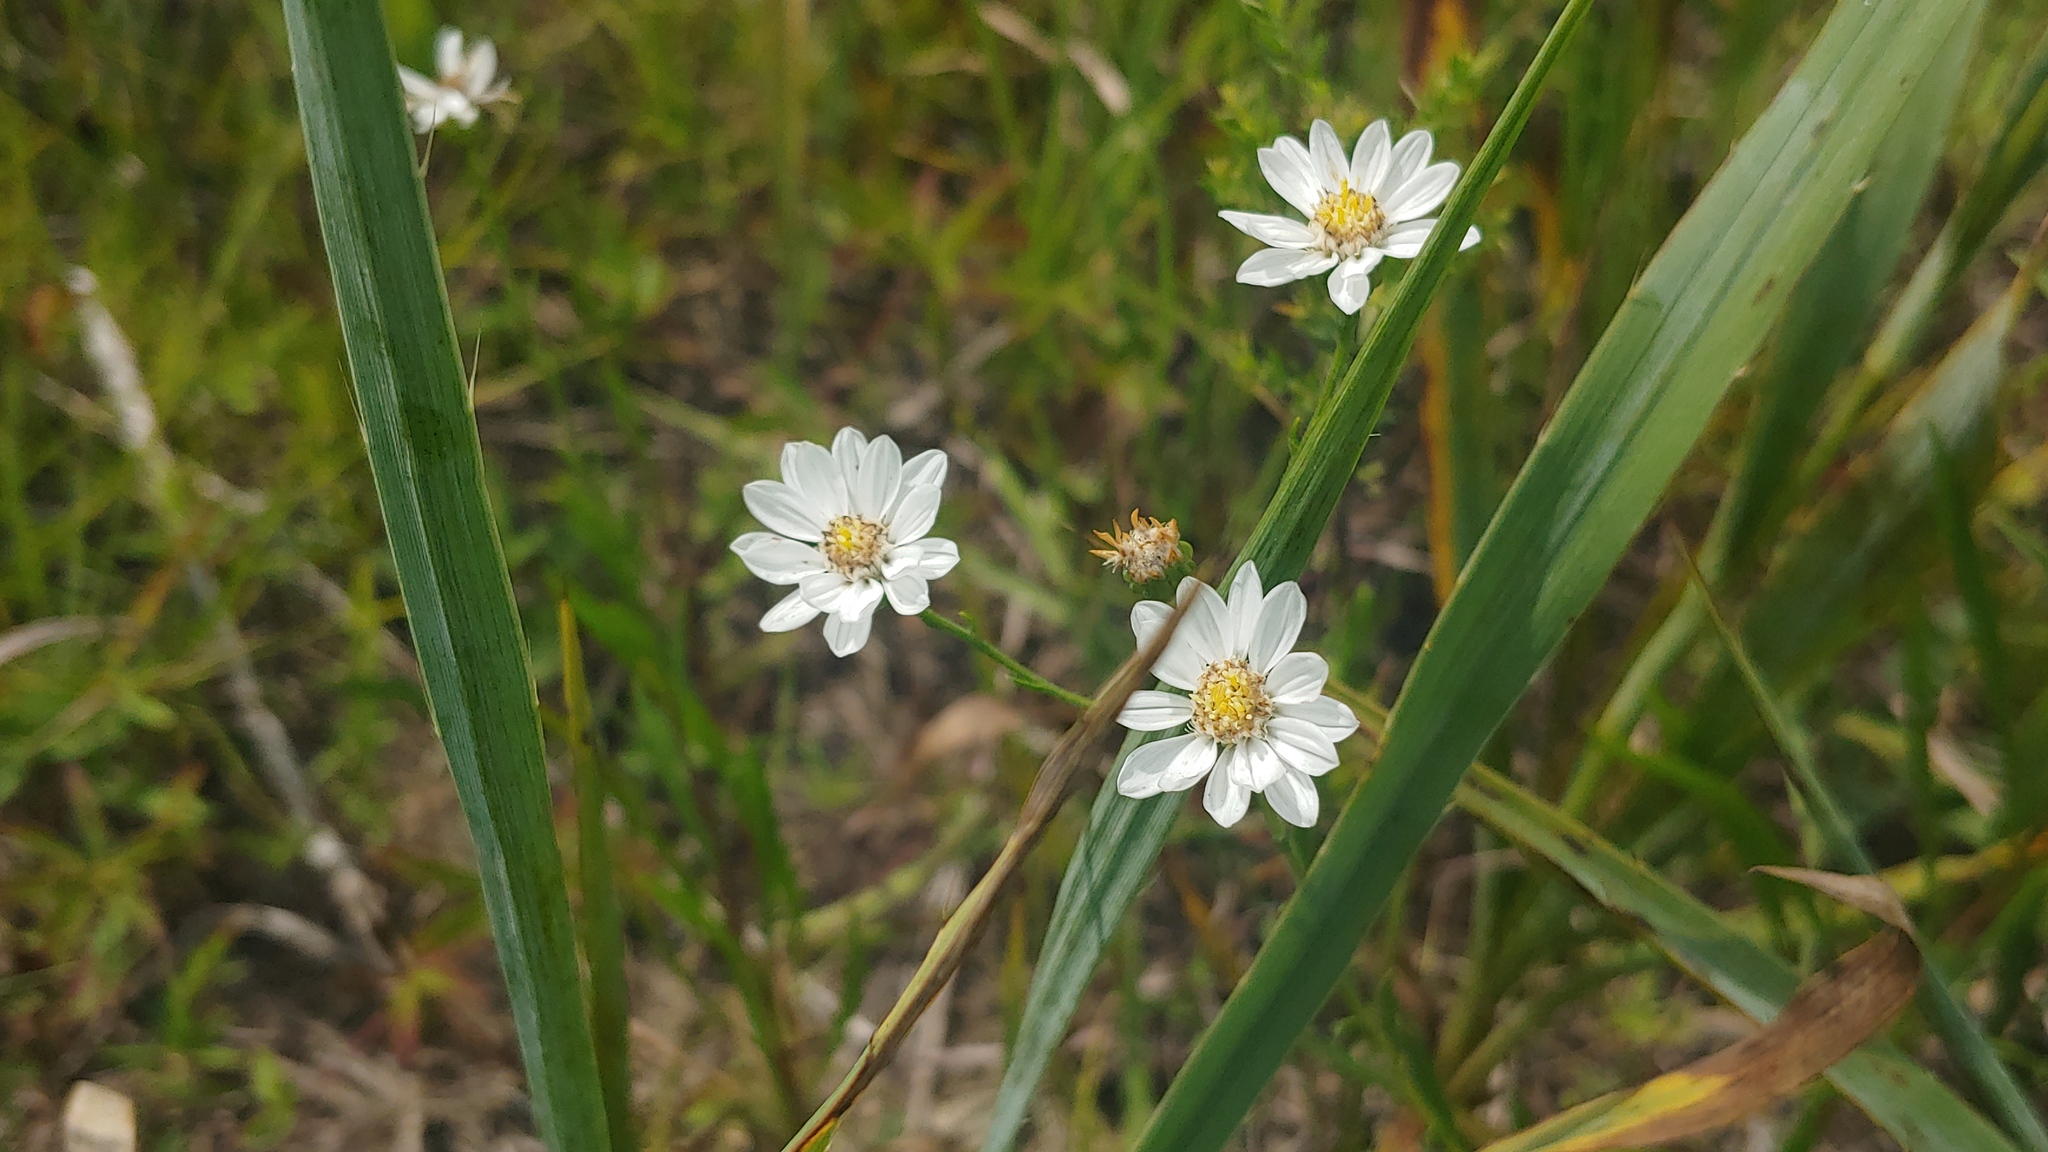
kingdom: Plantae
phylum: Tracheophyta
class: Magnoliopsida
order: Asterales
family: Asteraceae
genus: Solidago
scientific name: Solidago ptarmicoides
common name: White flat-top goldenrod
